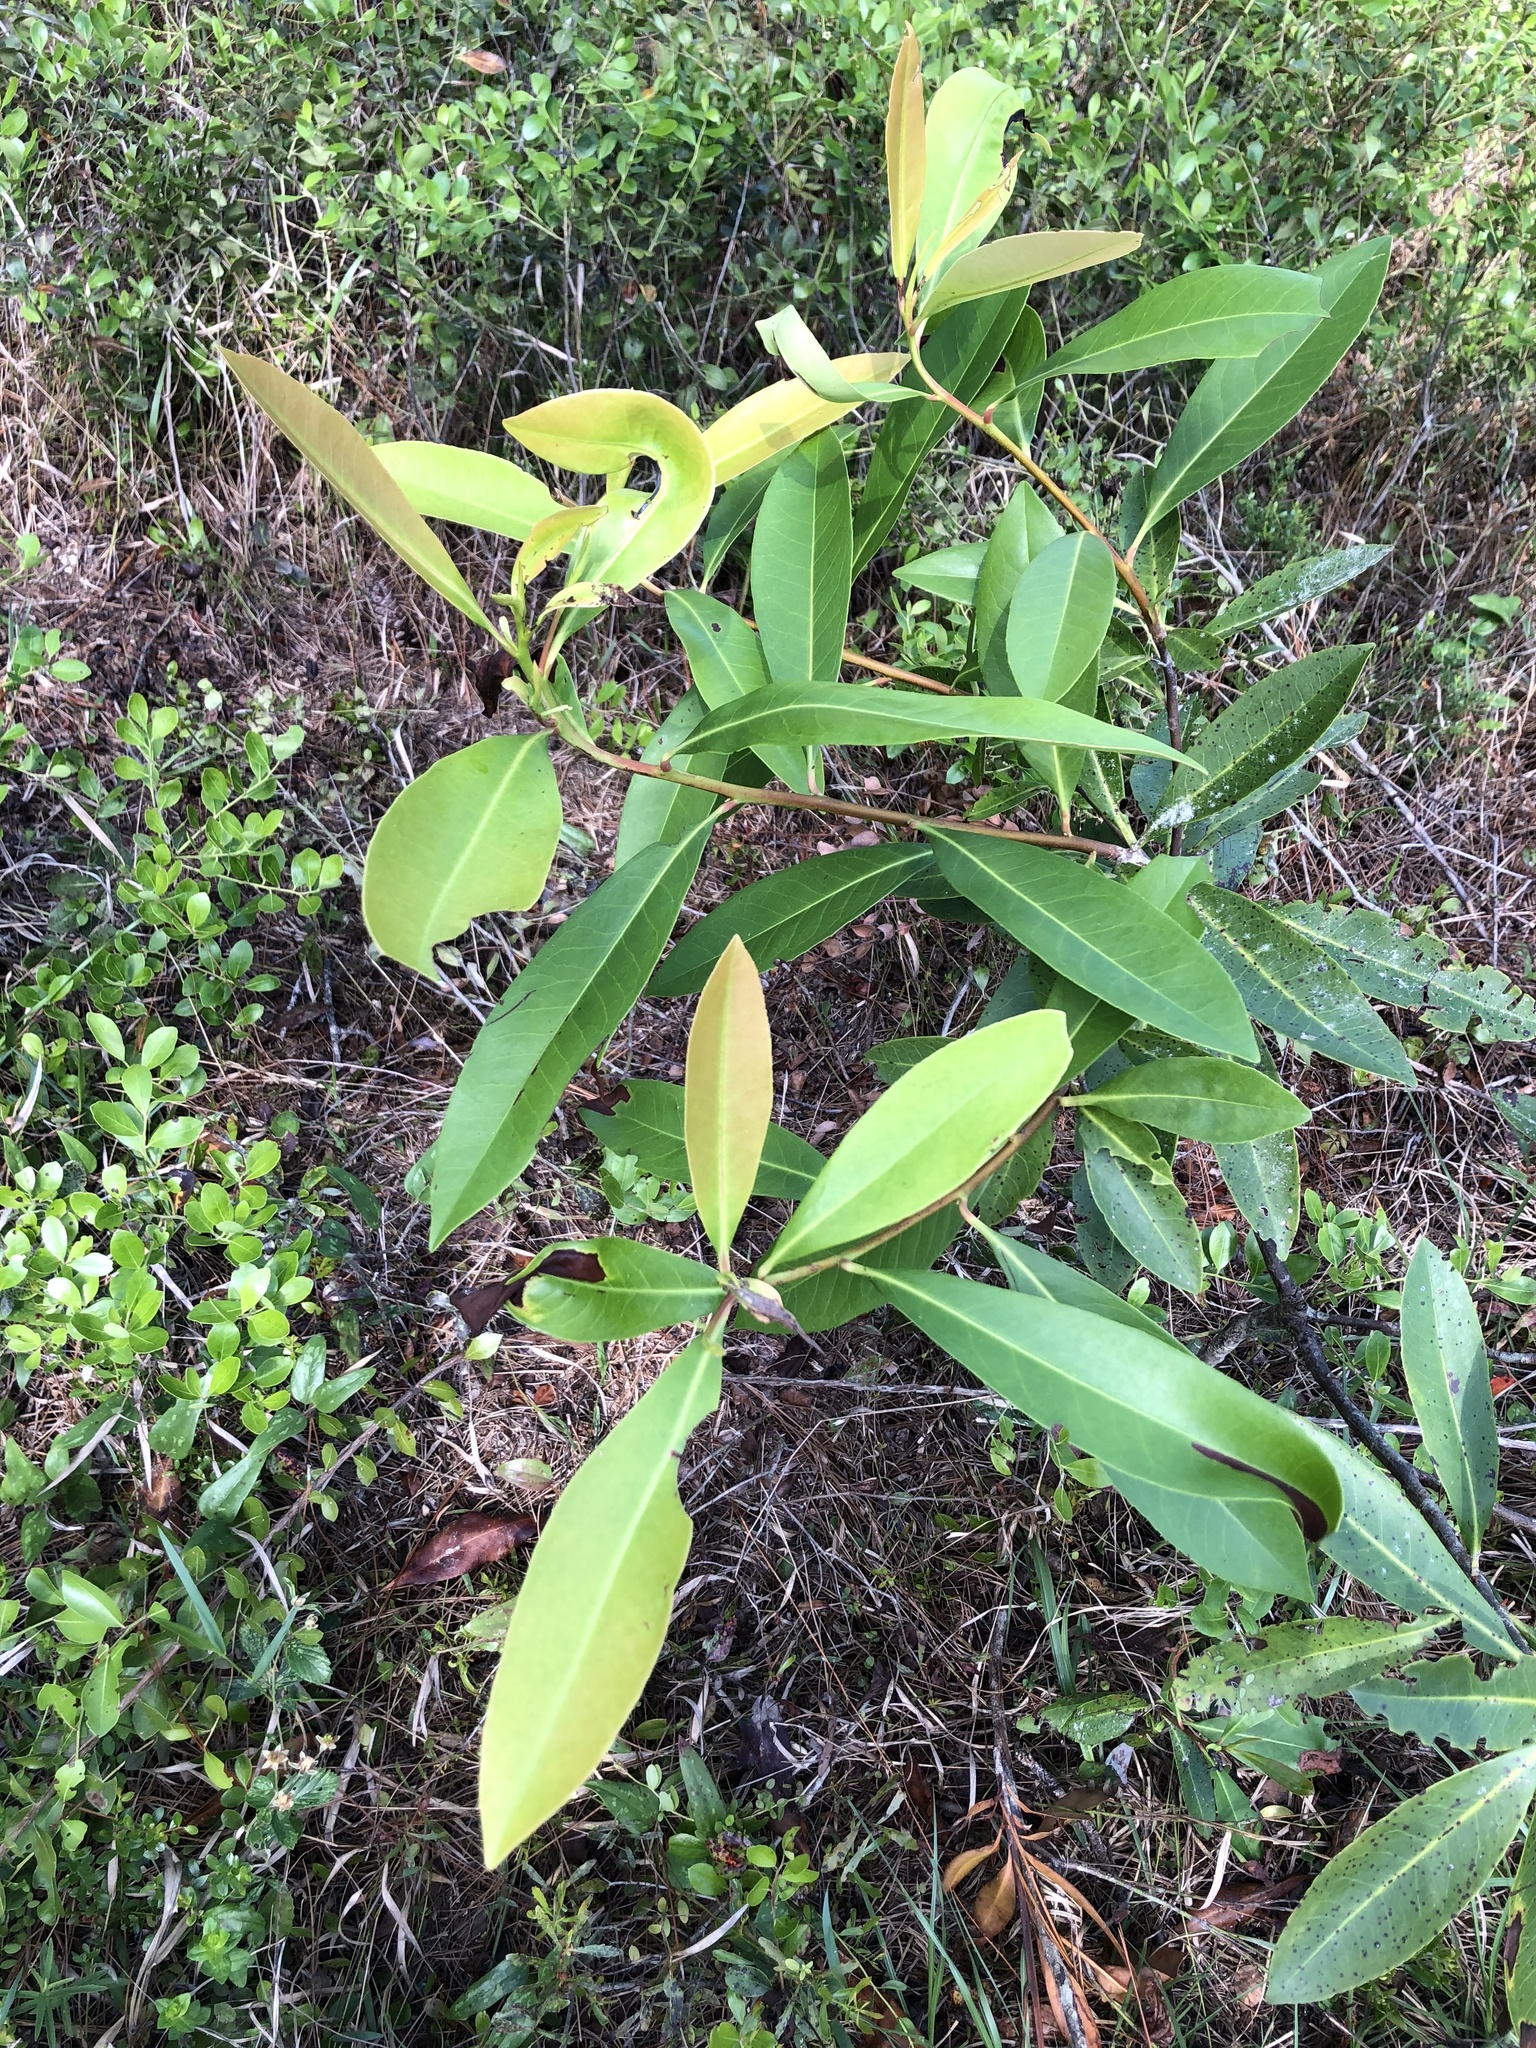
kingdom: Plantae
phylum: Tracheophyta
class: Magnoliopsida
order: Ericales
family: Theaceae
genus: Gordonia
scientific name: Gordonia lasianthus
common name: Loblolly bay
